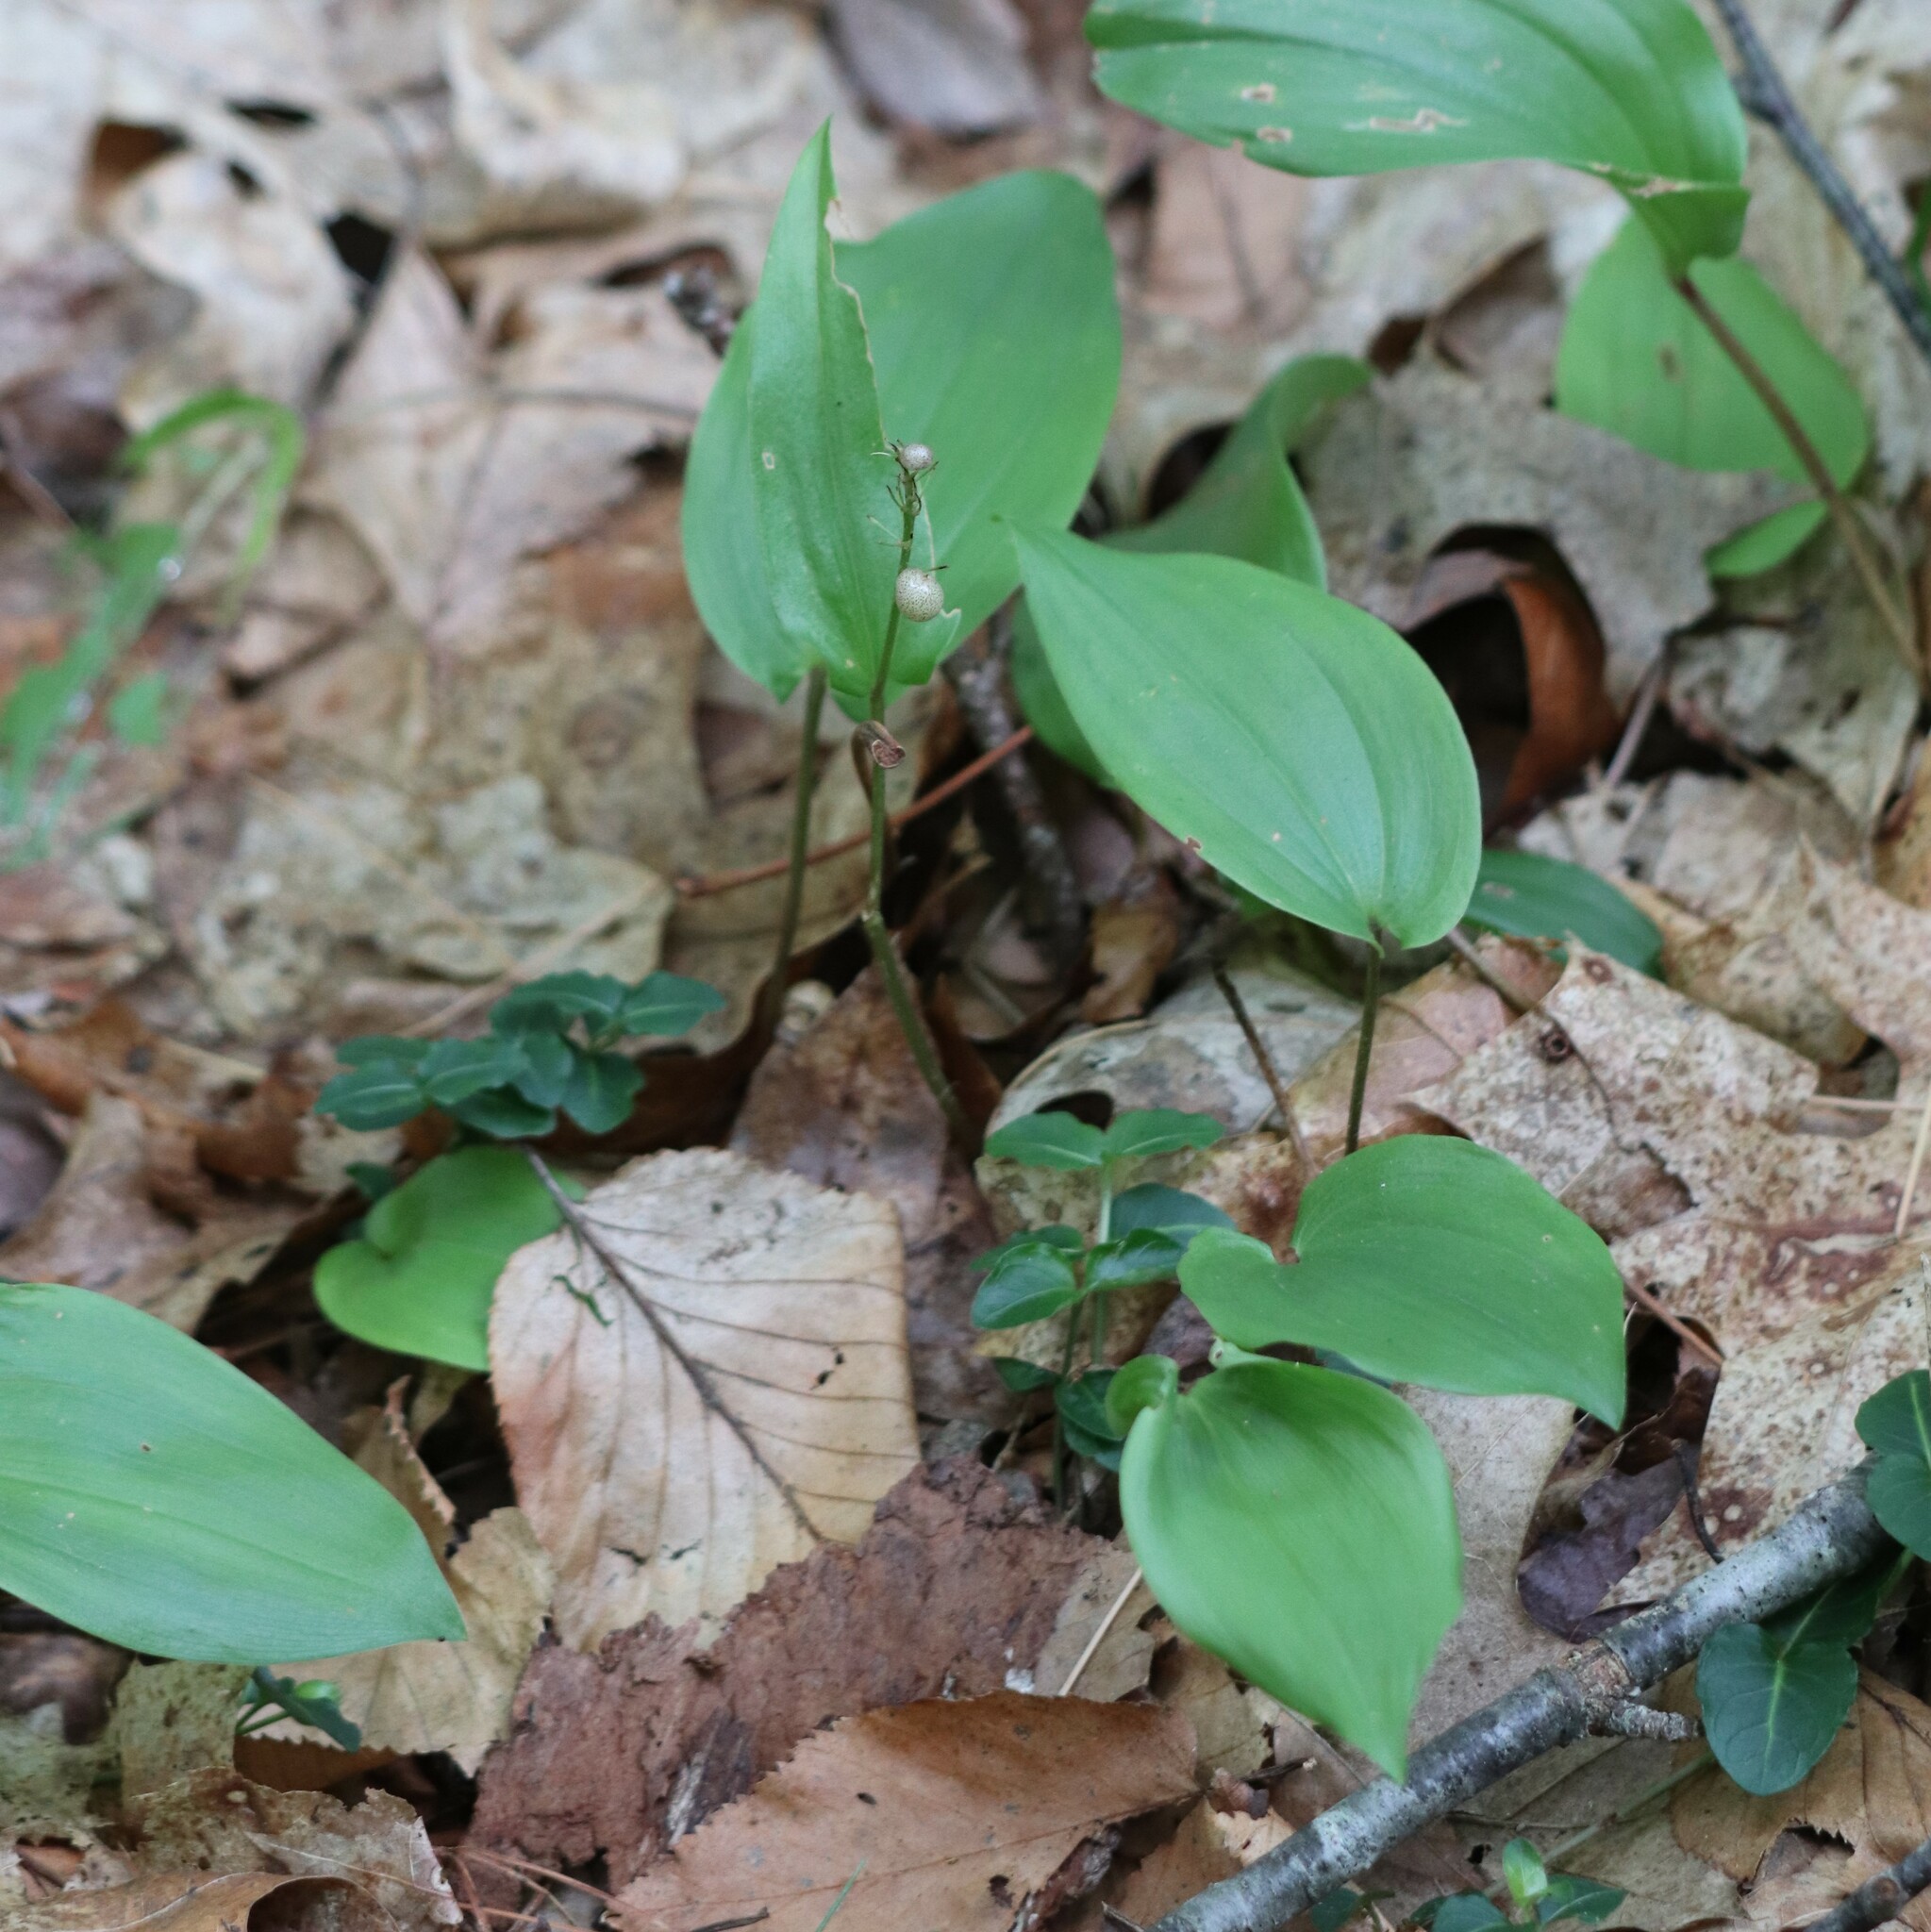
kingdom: Plantae
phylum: Tracheophyta
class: Liliopsida
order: Asparagales
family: Asparagaceae
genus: Maianthemum
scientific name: Maianthemum canadense
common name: False lily-of-the-valley
